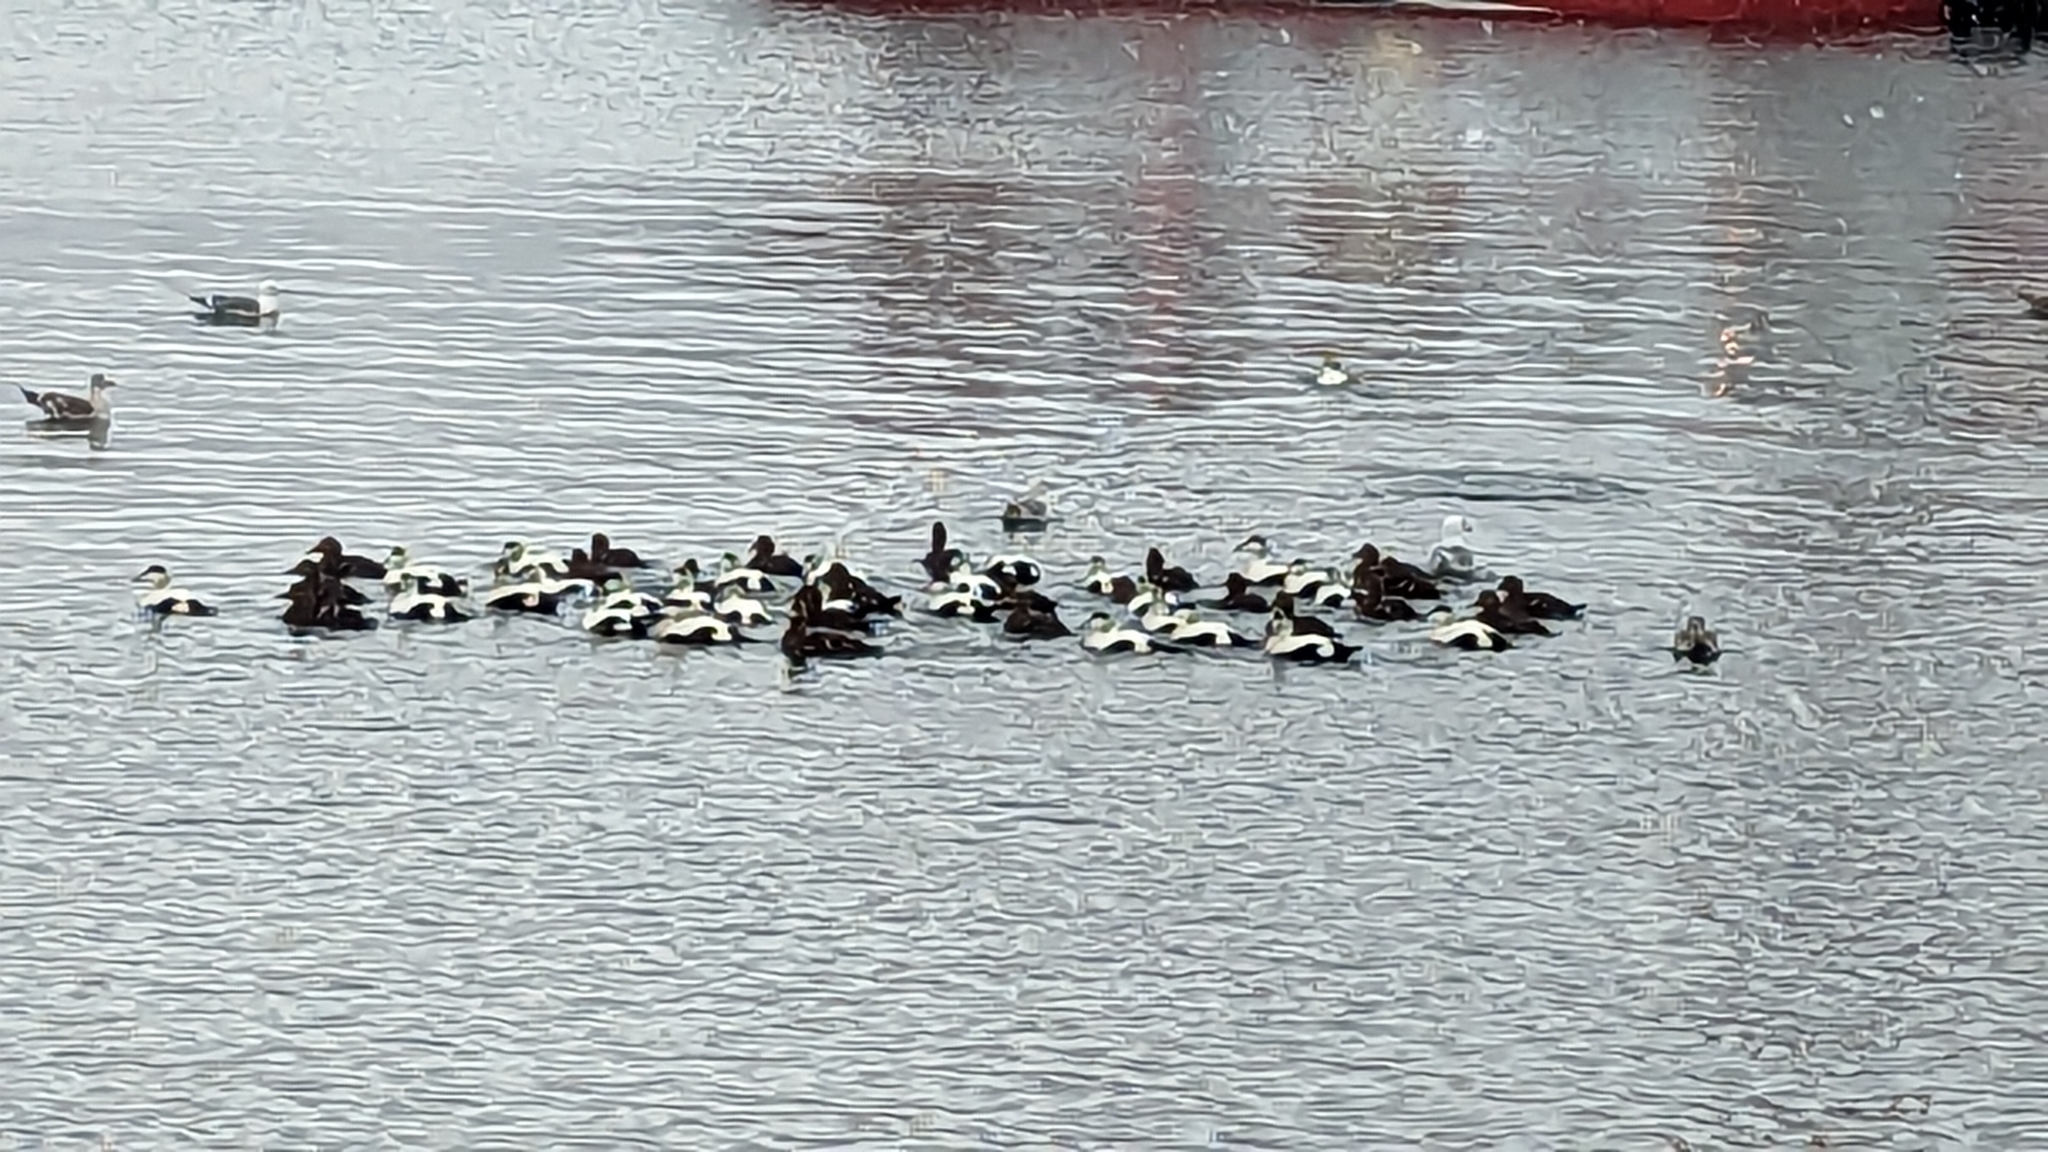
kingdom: Animalia
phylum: Chordata
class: Aves
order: Anseriformes
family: Anatidae
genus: Somateria
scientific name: Somateria mollissima
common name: Common eider
